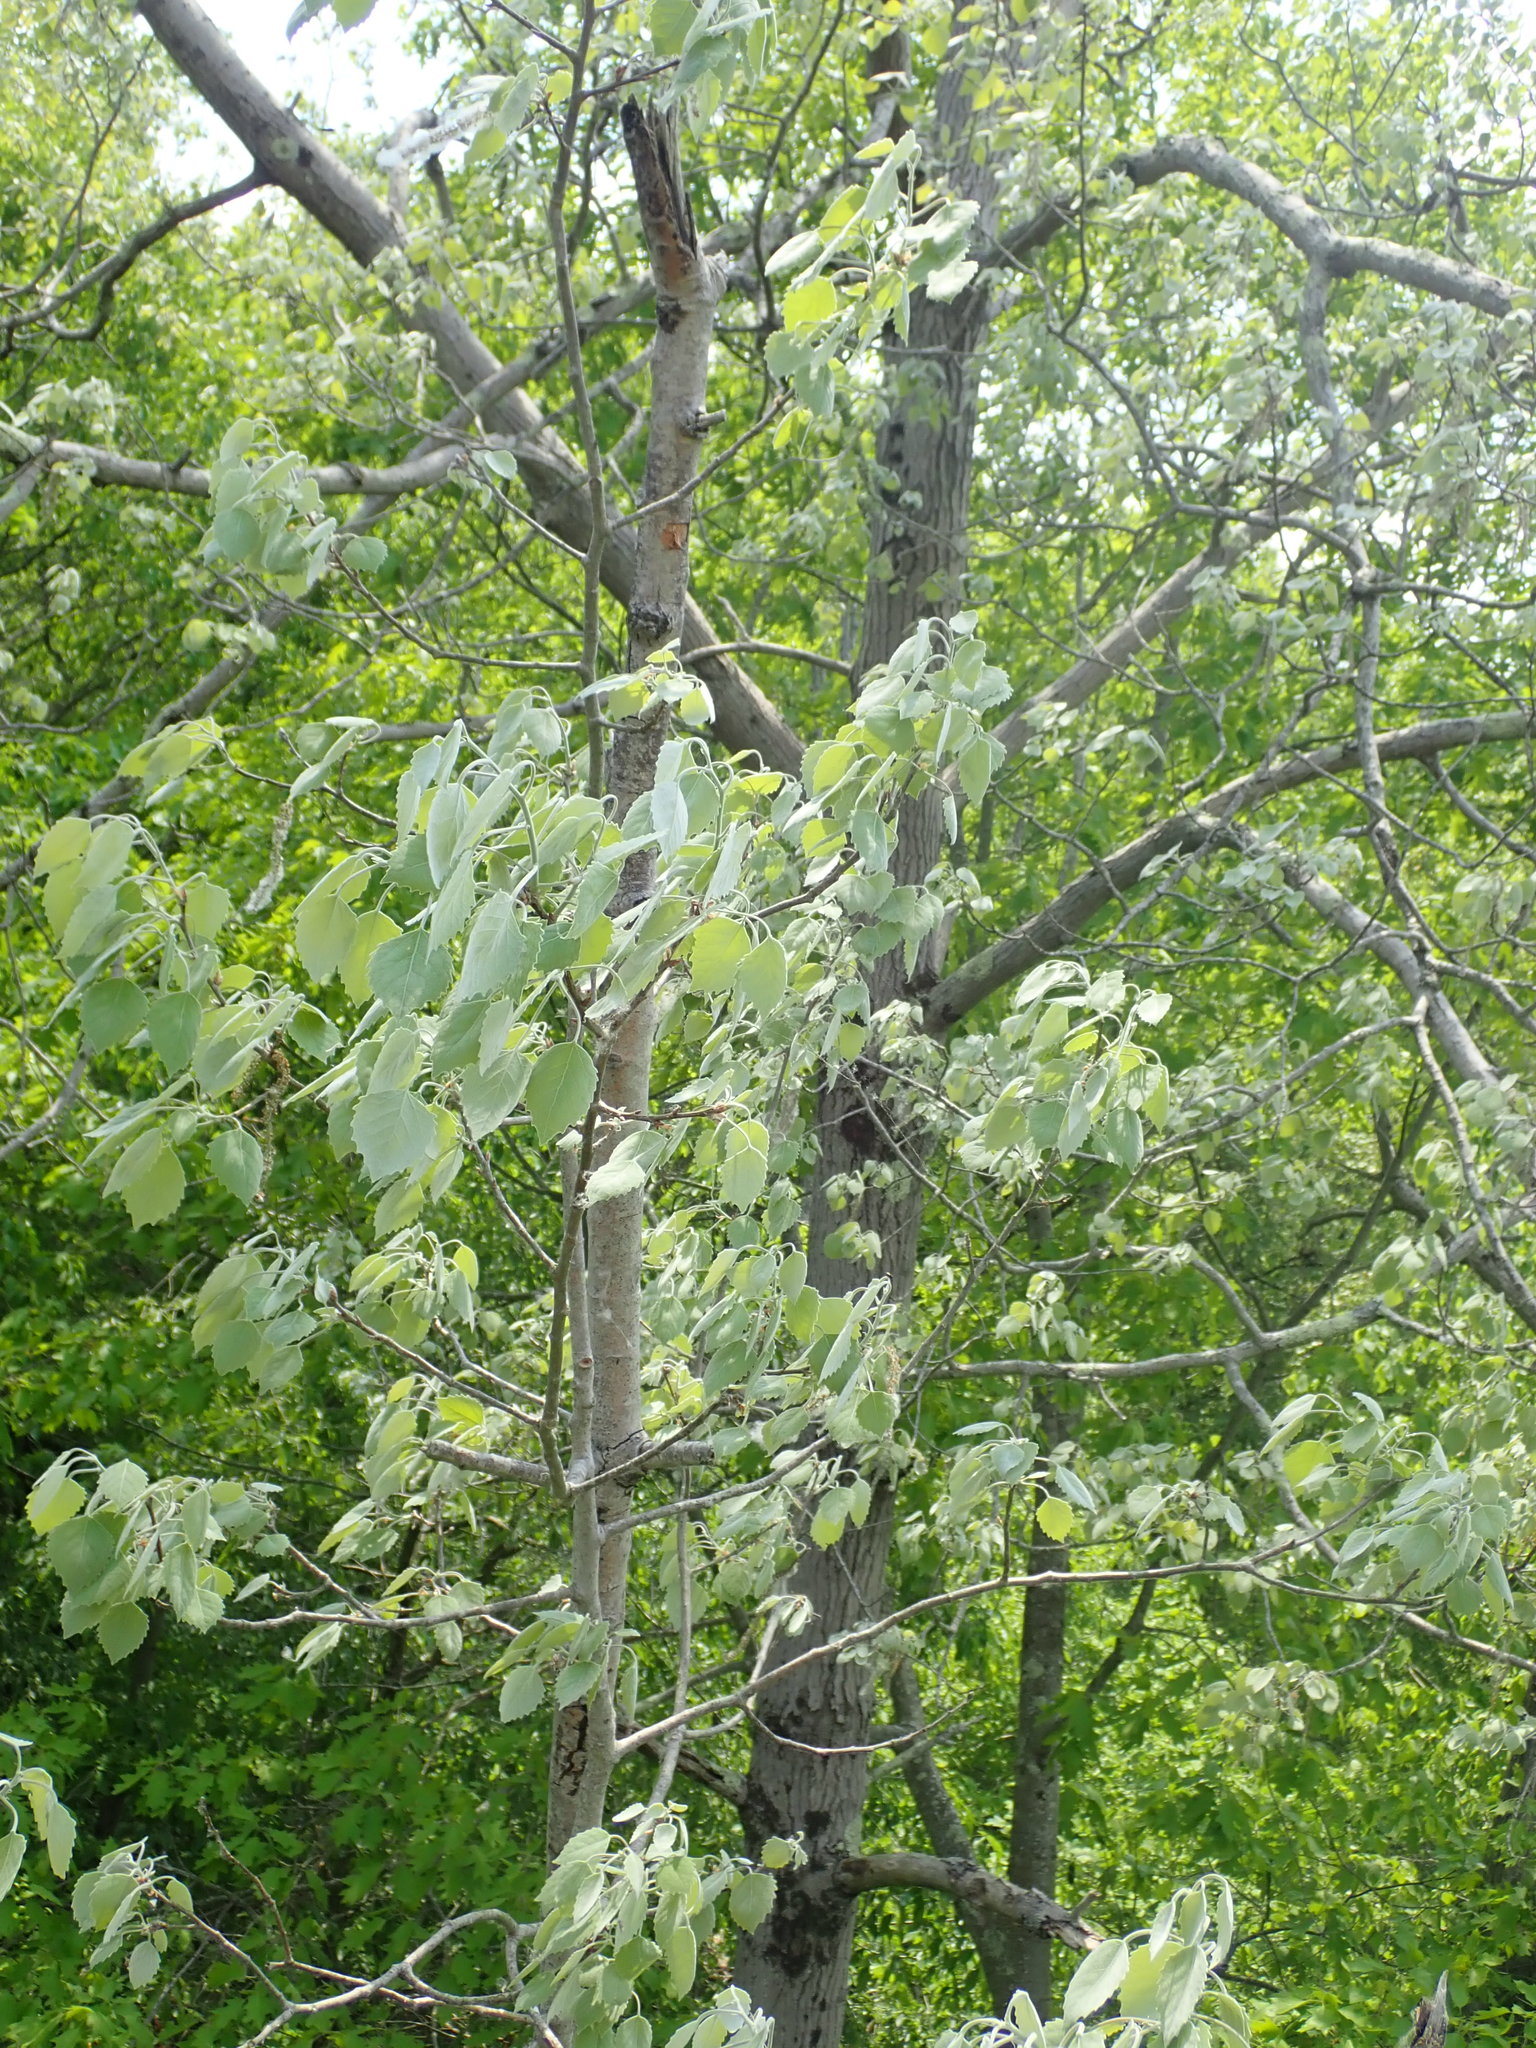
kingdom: Plantae
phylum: Tracheophyta
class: Magnoliopsida
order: Malpighiales
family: Salicaceae
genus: Populus
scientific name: Populus grandidentata
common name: Bigtooth aspen
